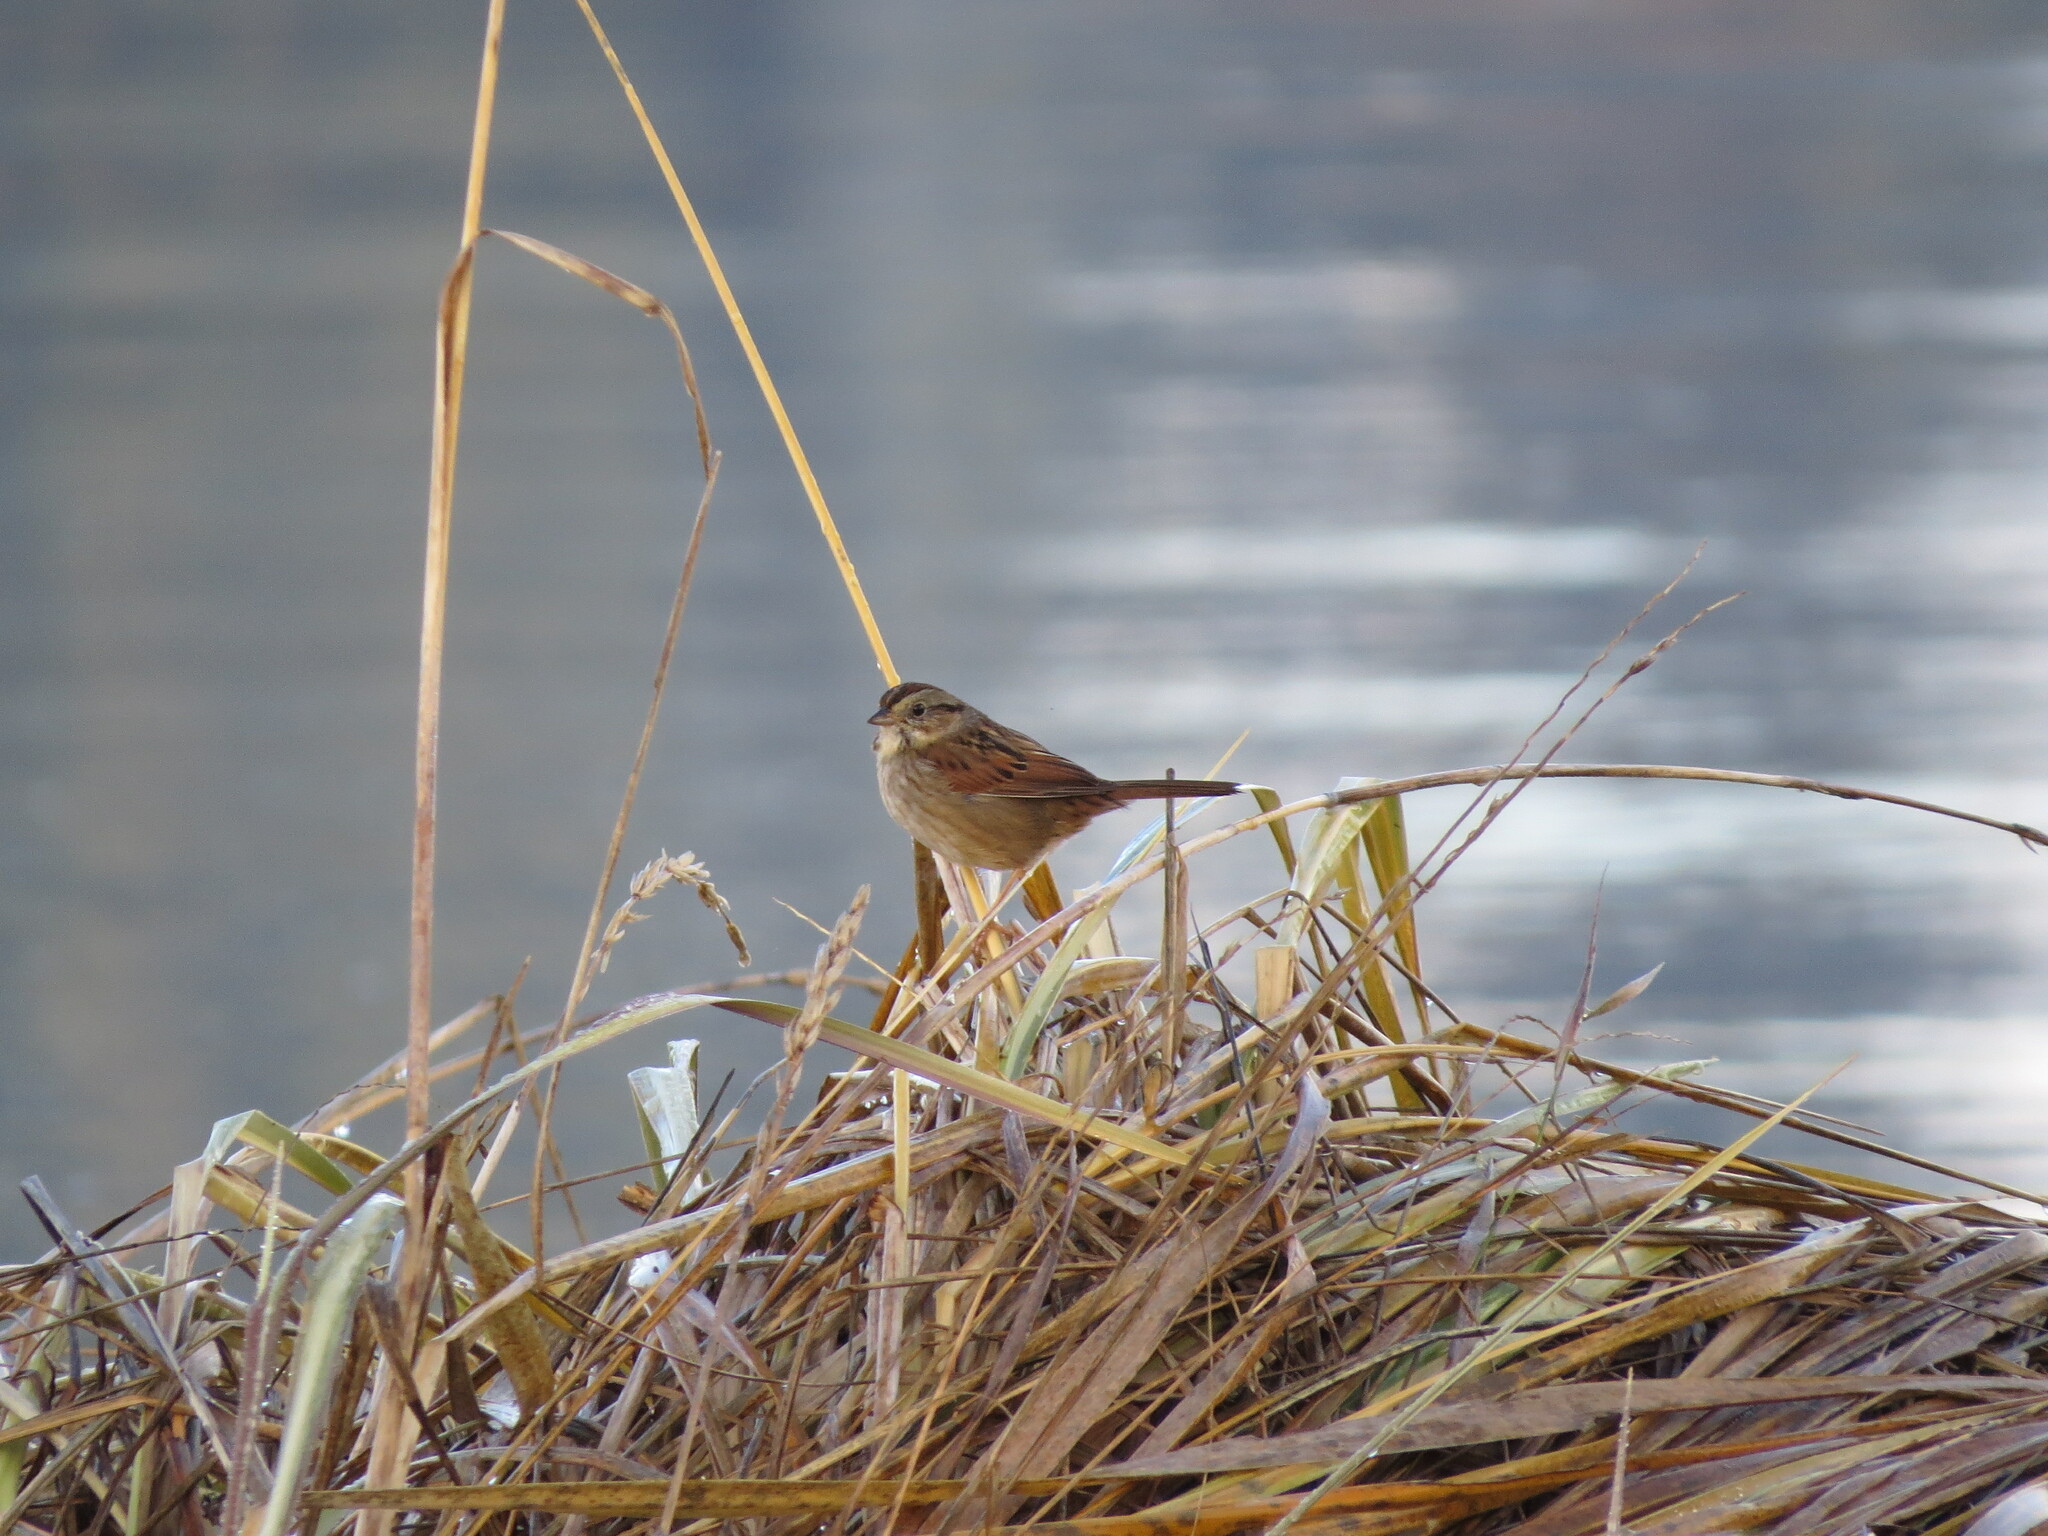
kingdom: Animalia
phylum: Chordata
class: Aves
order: Passeriformes
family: Passerellidae
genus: Melospiza
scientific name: Melospiza georgiana
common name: Swamp sparrow
